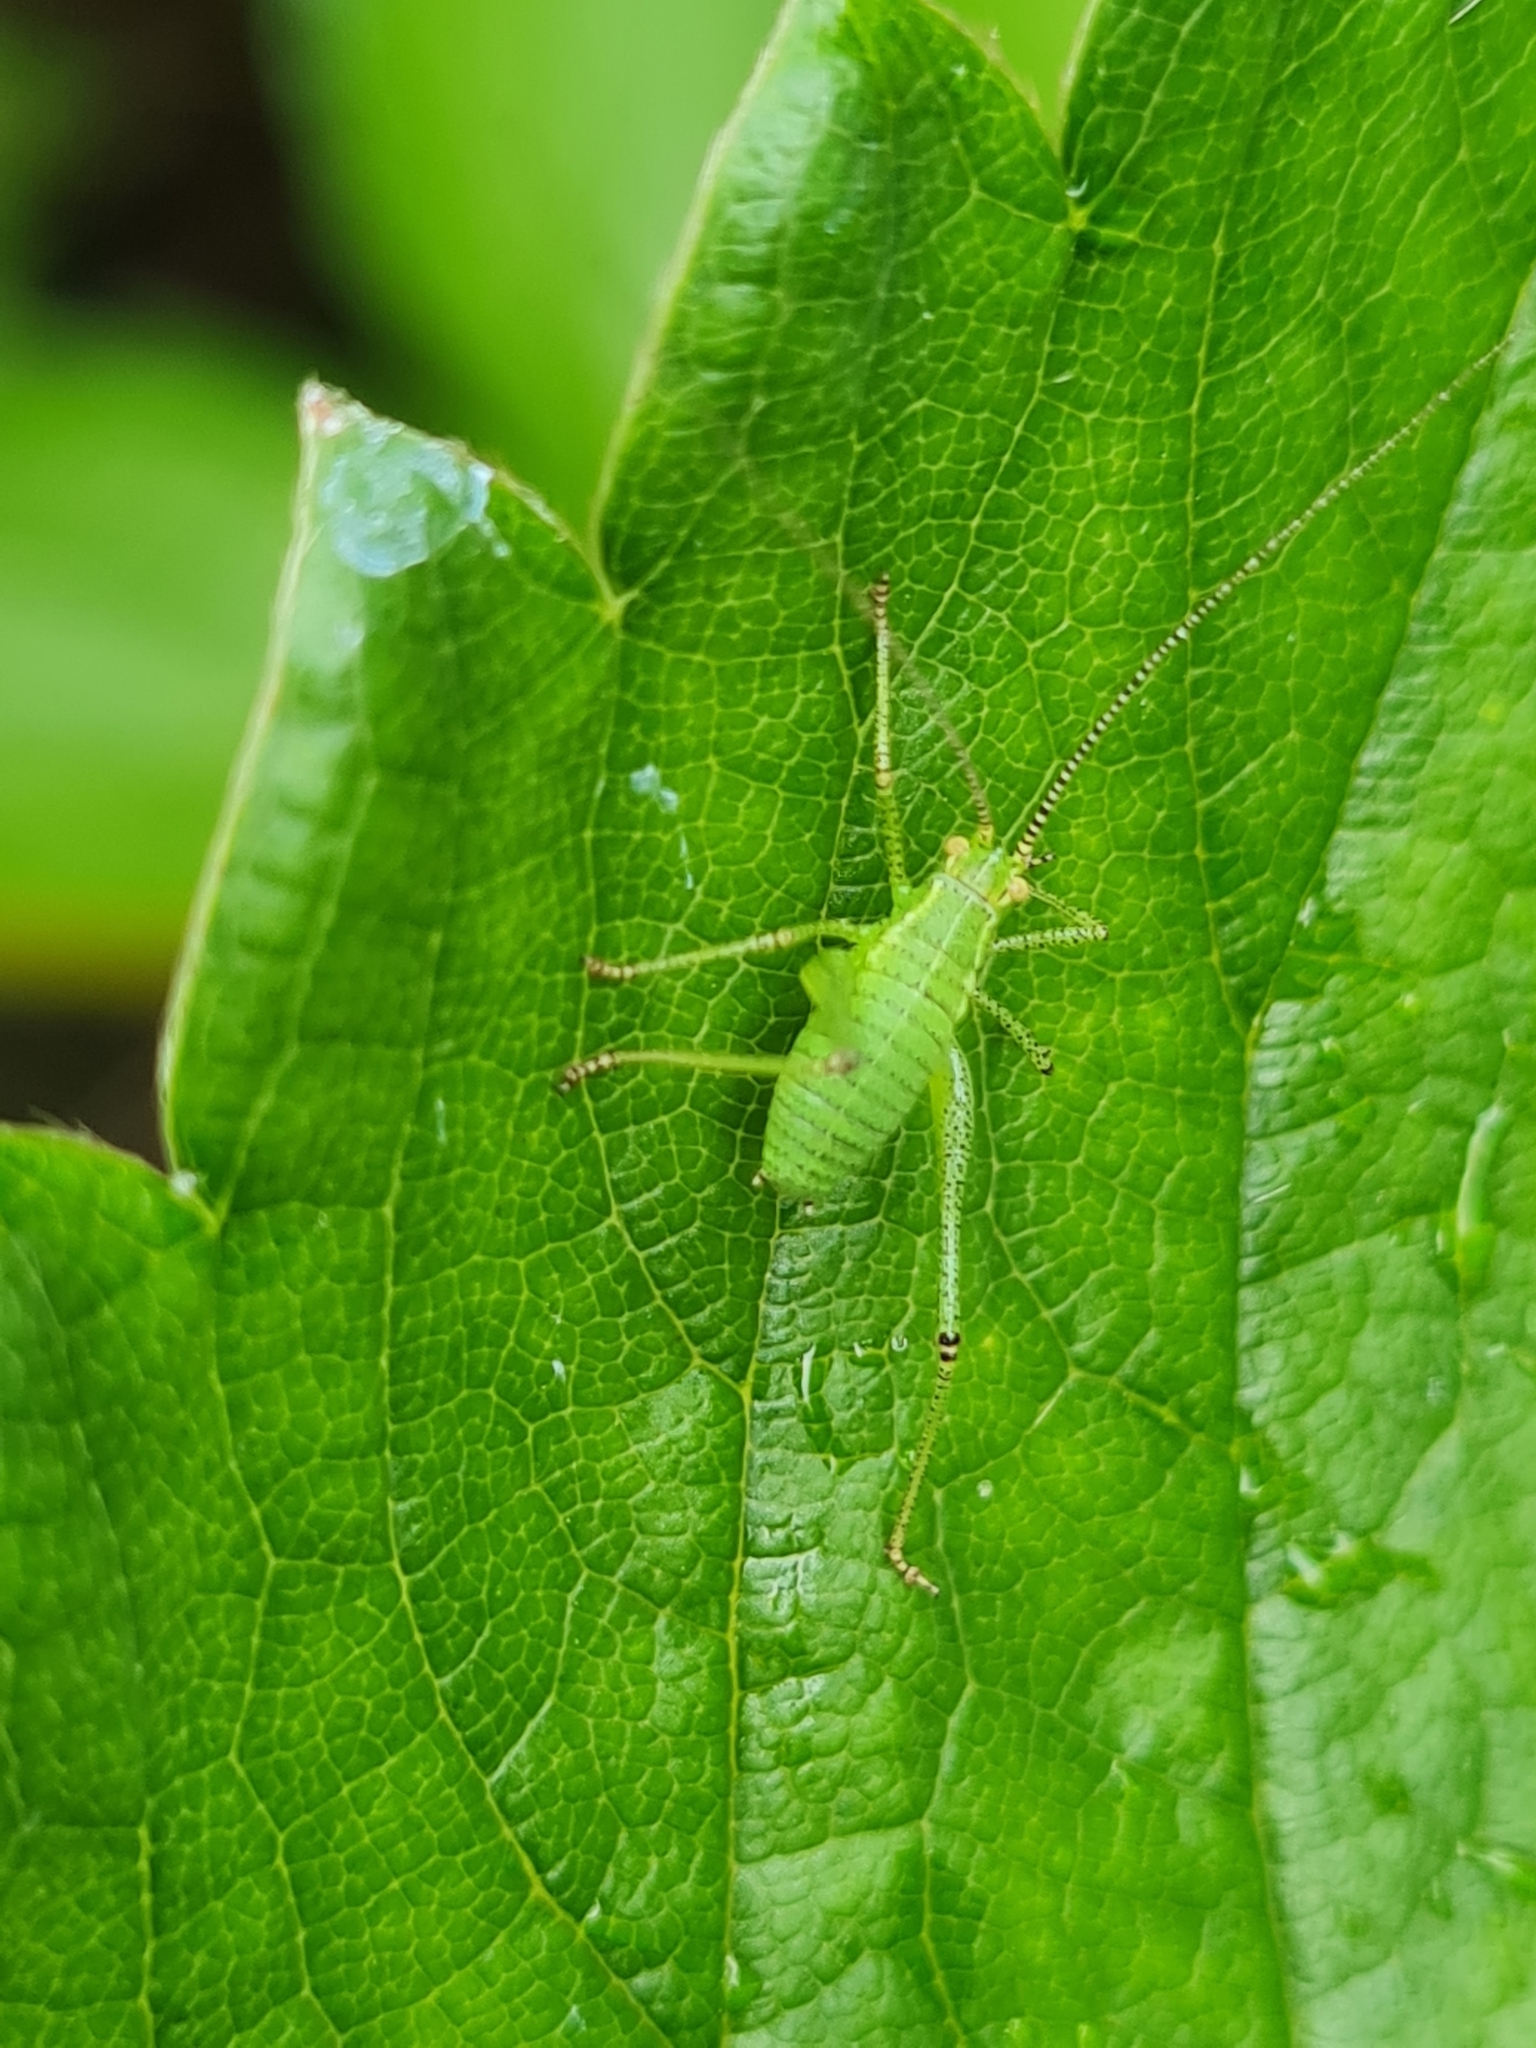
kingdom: Animalia
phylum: Arthropoda
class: Insecta
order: Orthoptera
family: Tettigoniidae
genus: Leptophyes
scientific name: Leptophyes punctatissima
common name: Speckled bush-cricket
